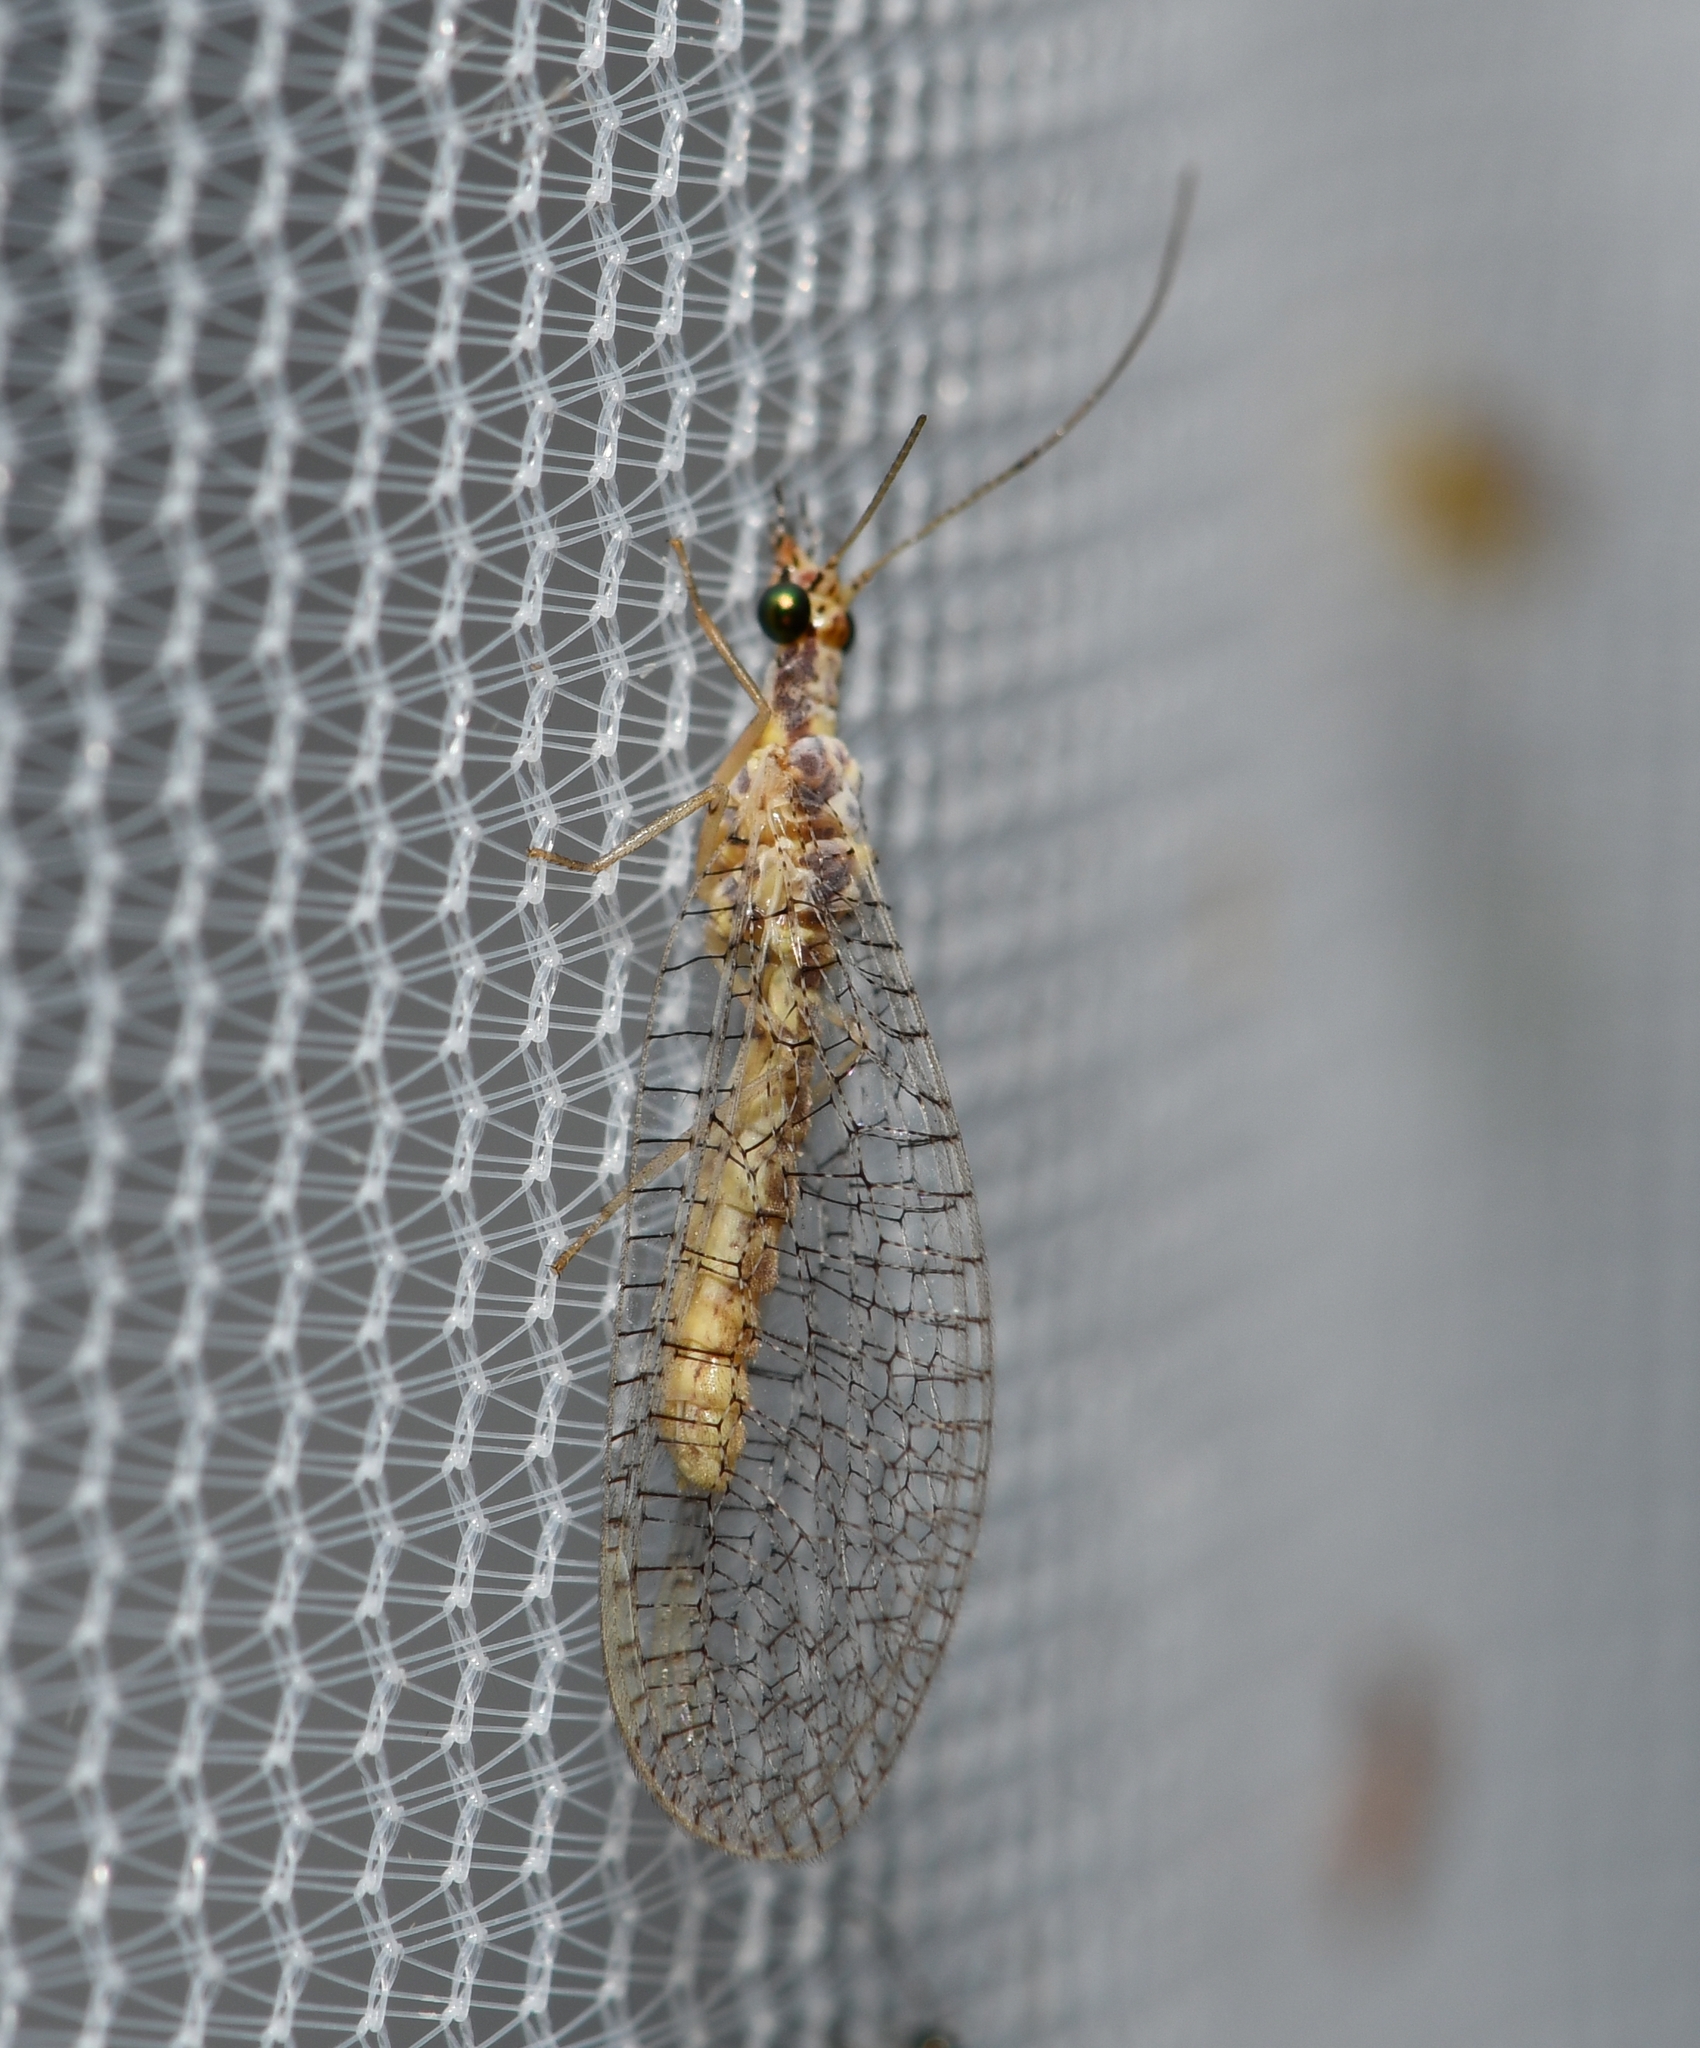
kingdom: Animalia
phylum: Arthropoda
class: Insecta
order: Neuroptera
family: Chrysopidae
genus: Eremochrysa
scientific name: Eremochrysa punctinervis
